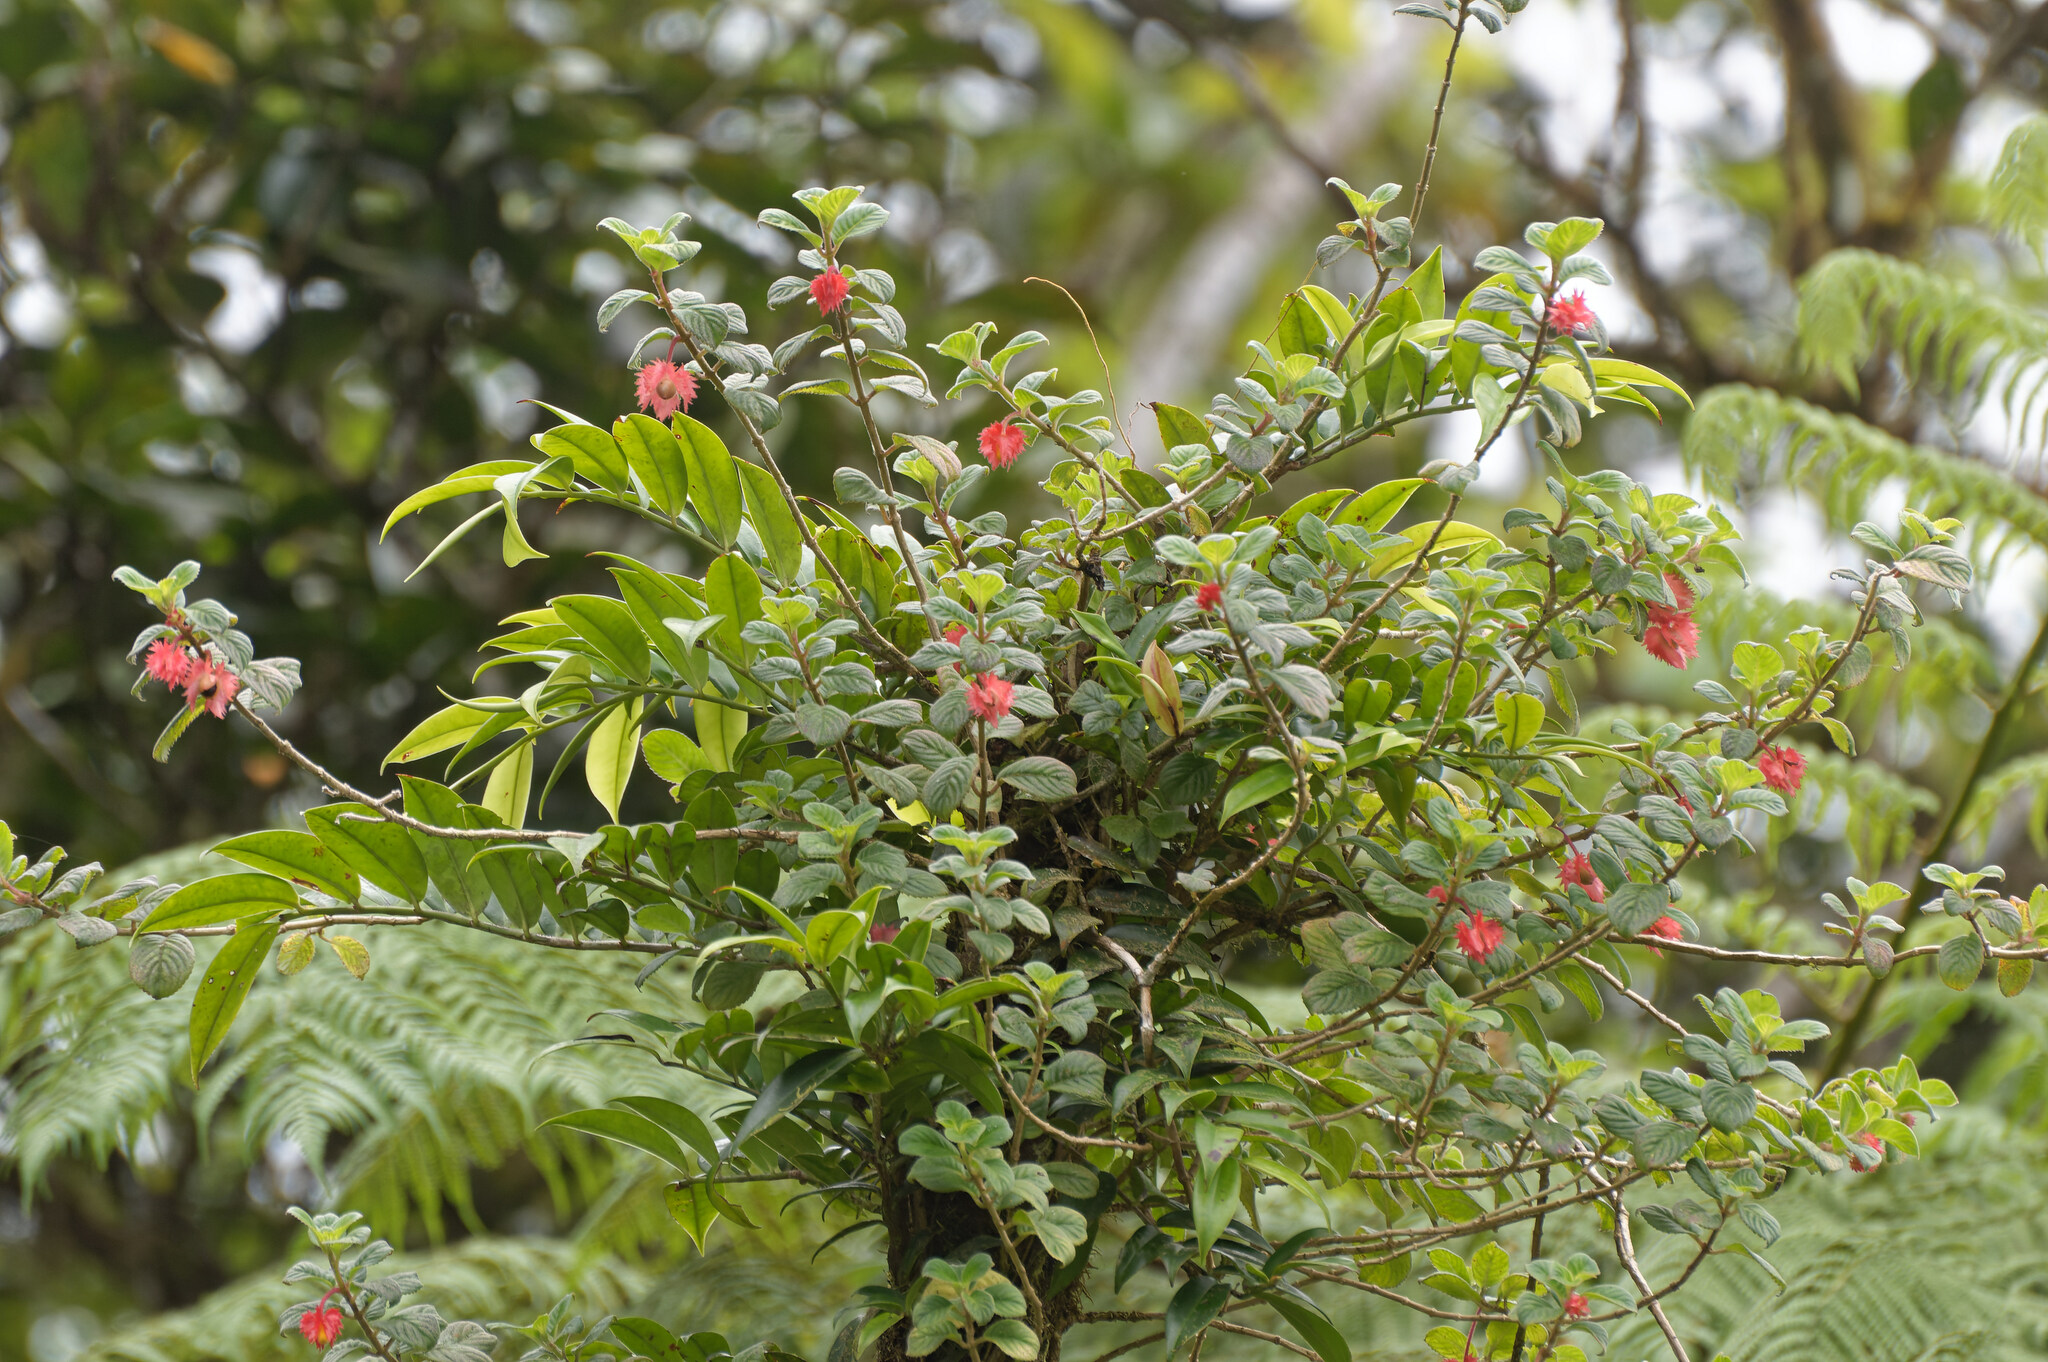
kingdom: Plantae
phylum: Tracheophyta
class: Magnoliopsida
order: Lamiales
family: Gesneriaceae
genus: Crantzia
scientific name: Crantzia cristata
